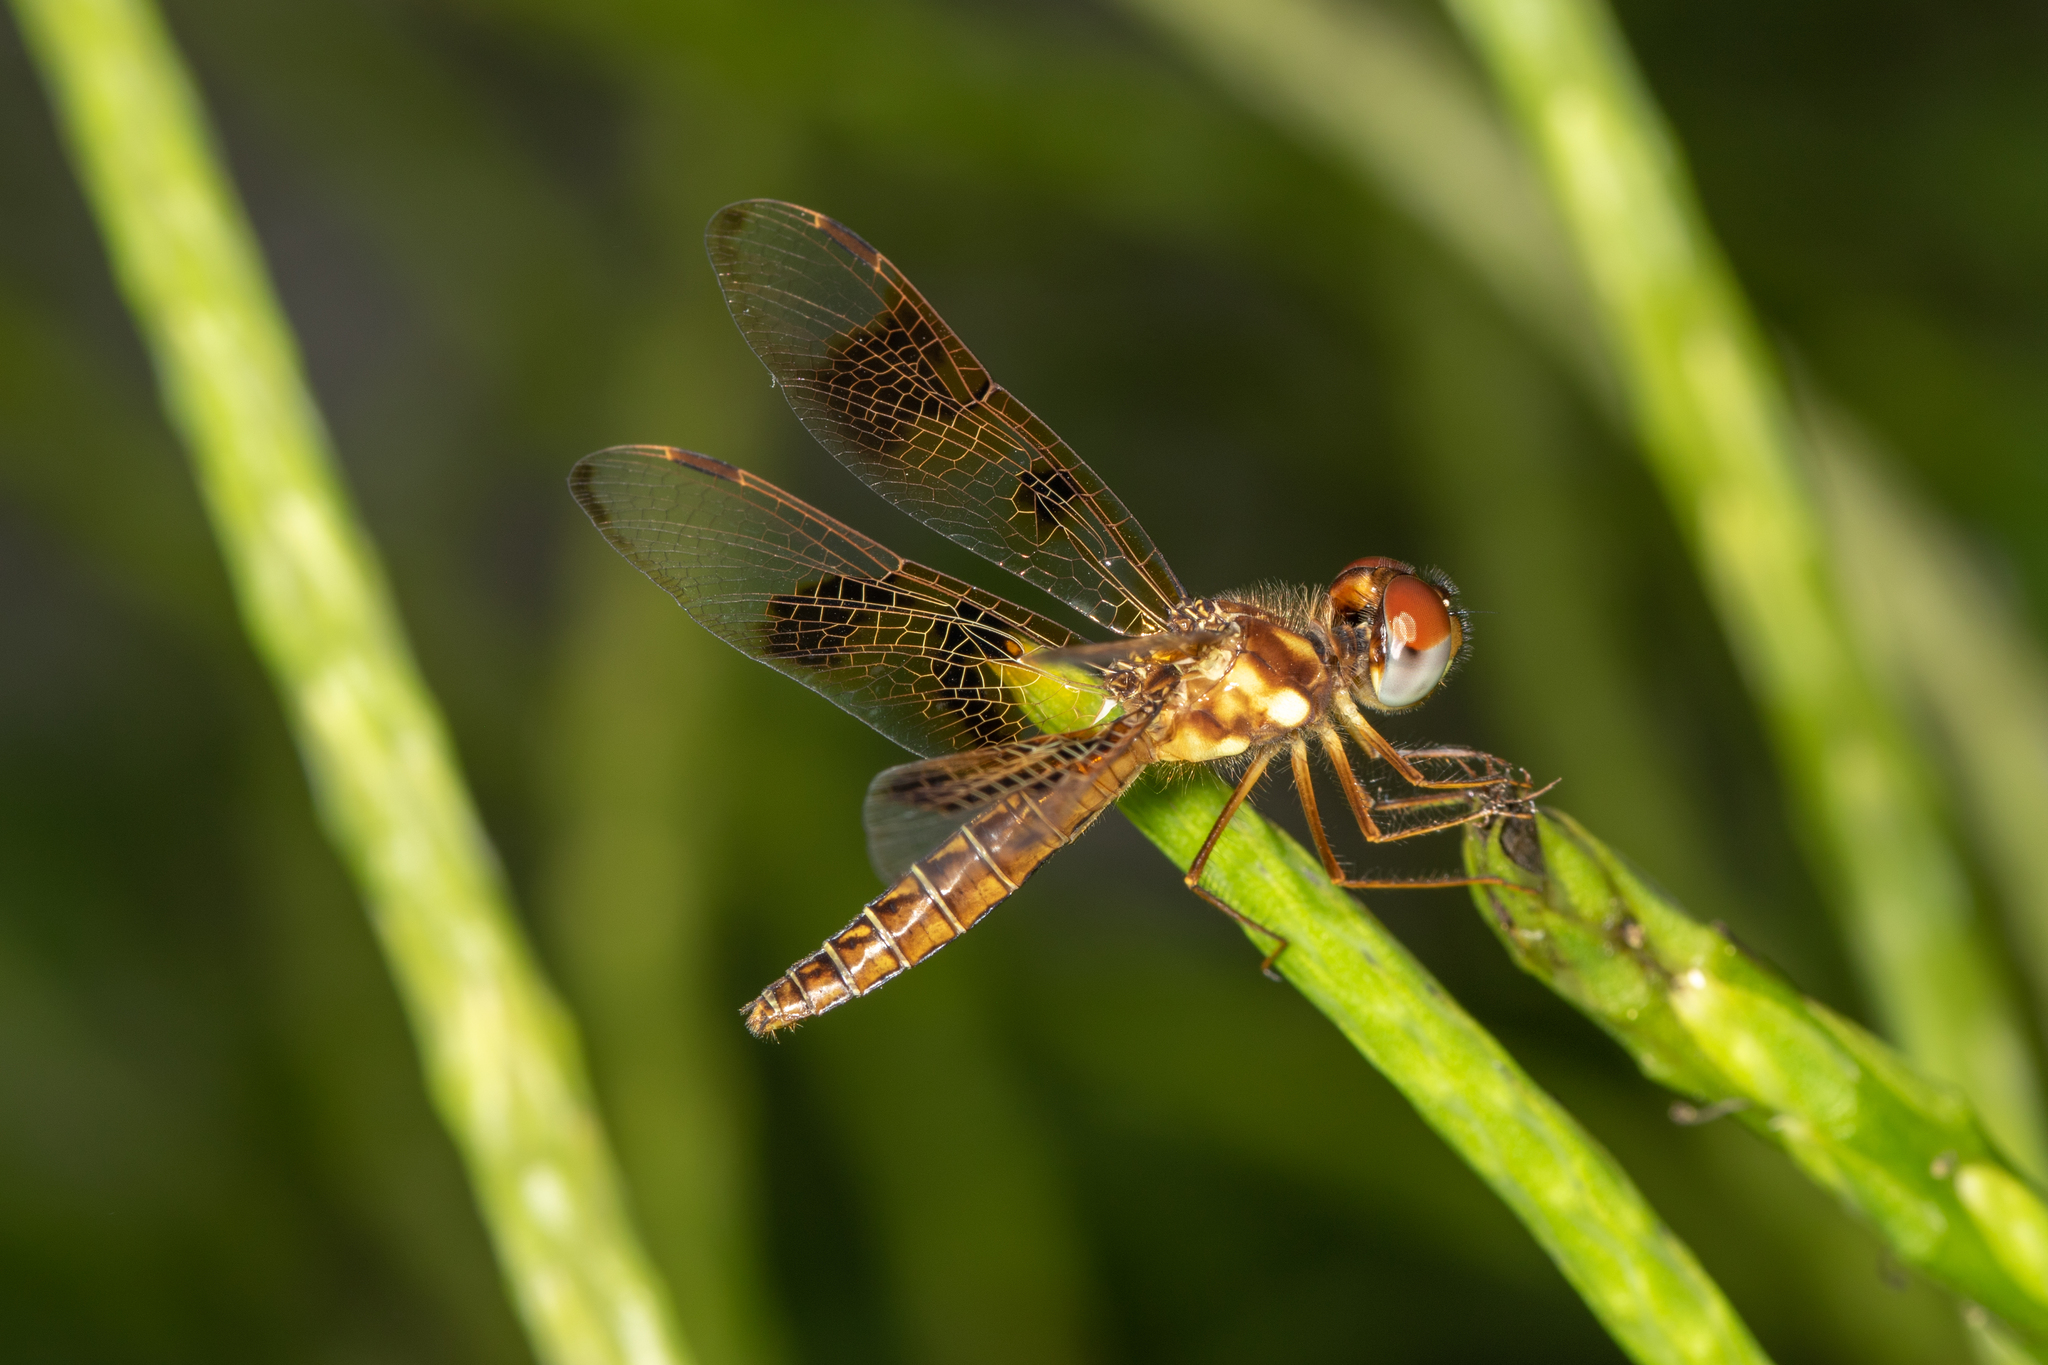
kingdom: Animalia
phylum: Arthropoda
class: Insecta
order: Odonata
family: Libellulidae
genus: Perithemis
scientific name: Perithemis tenera
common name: Eastern amberwing
